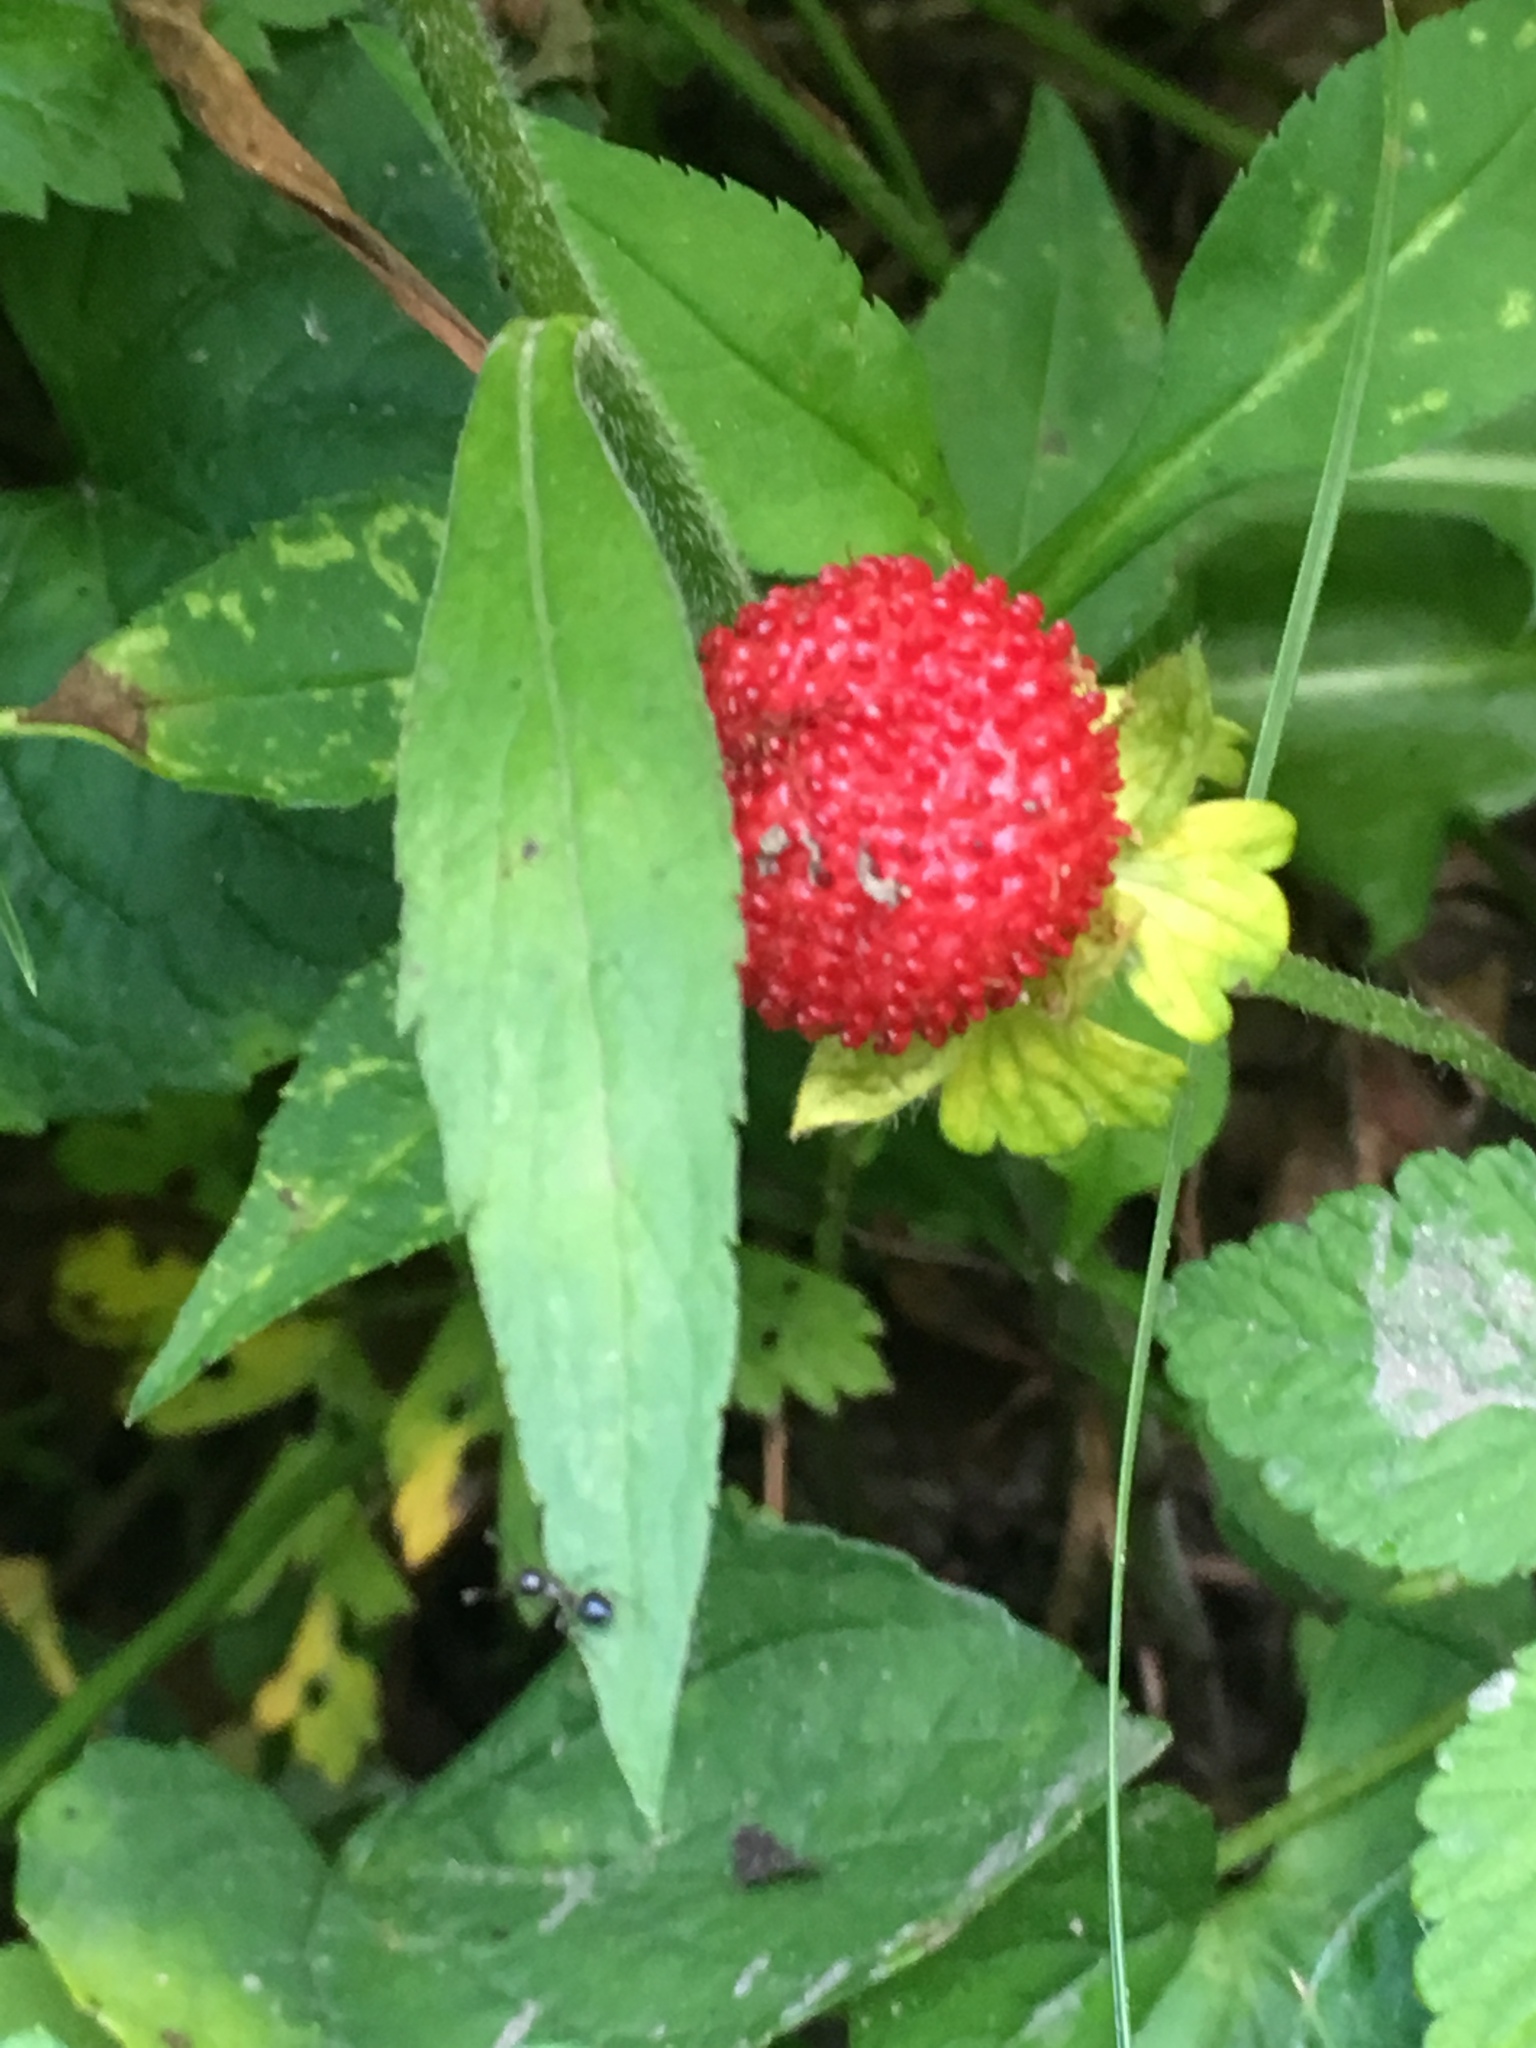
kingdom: Plantae
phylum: Tracheophyta
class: Magnoliopsida
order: Rosales
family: Rosaceae
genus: Potentilla
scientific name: Potentilla indica
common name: Yellow-flowered strawberry
